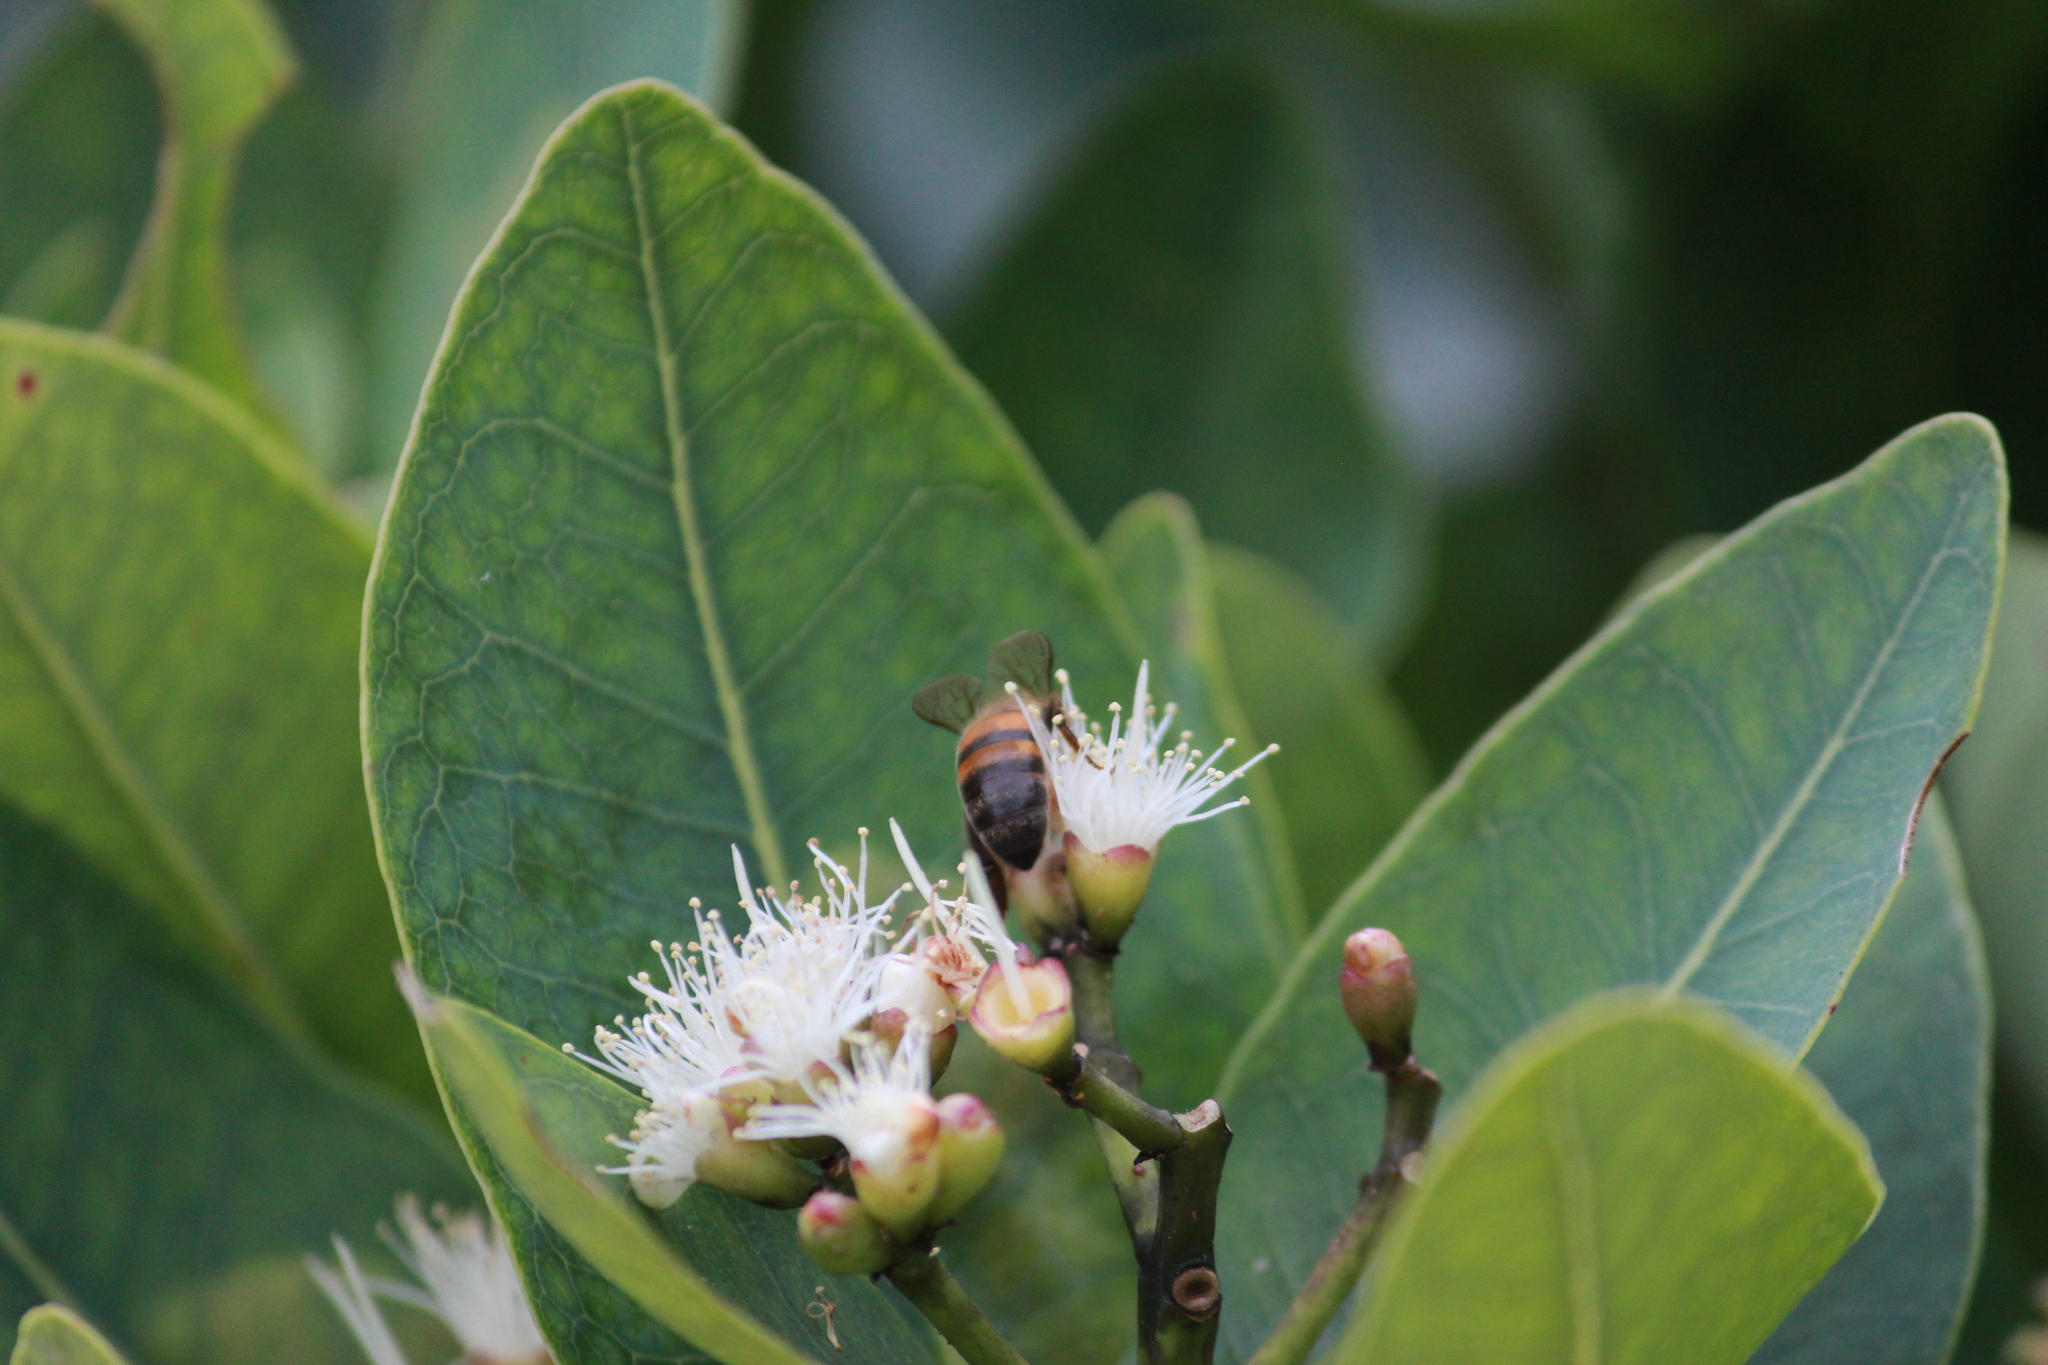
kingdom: Animalia
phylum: Arthropoda
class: Insecta
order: Hymenoptera
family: Apidae
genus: Apis
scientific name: Apis mellifera
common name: Honey bee
